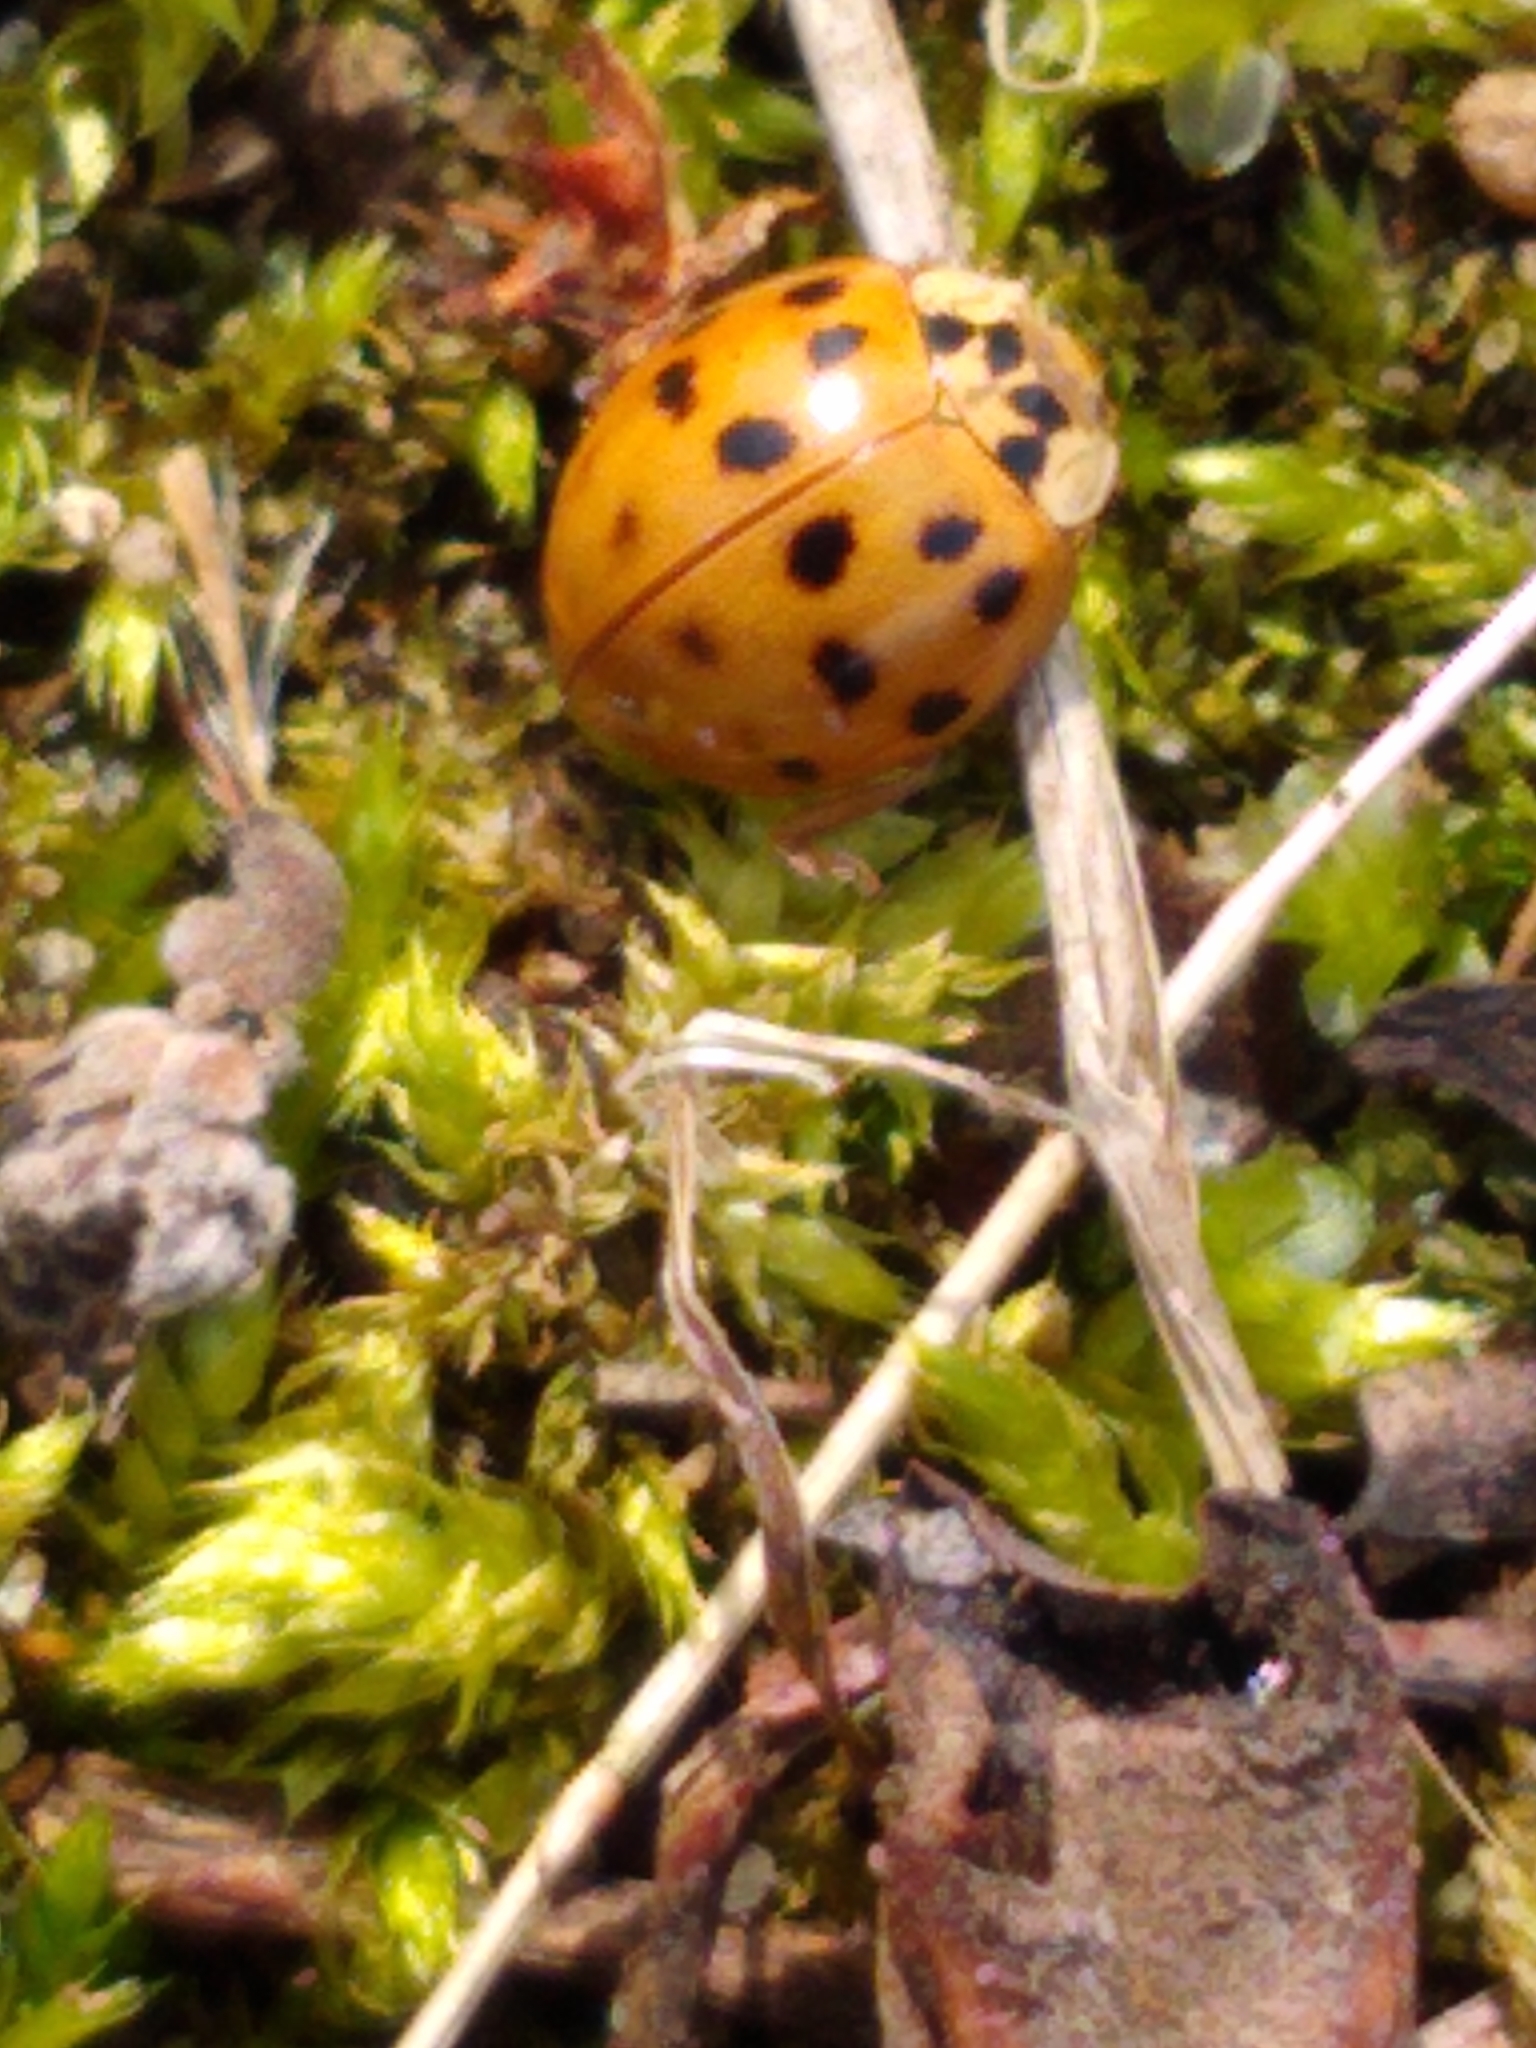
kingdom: Animalia
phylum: Arthropoda
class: Insecta
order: Coleoptera
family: Coccinellidae
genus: Harmonia
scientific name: Harmonia axyridis
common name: Harlequin ladybird
